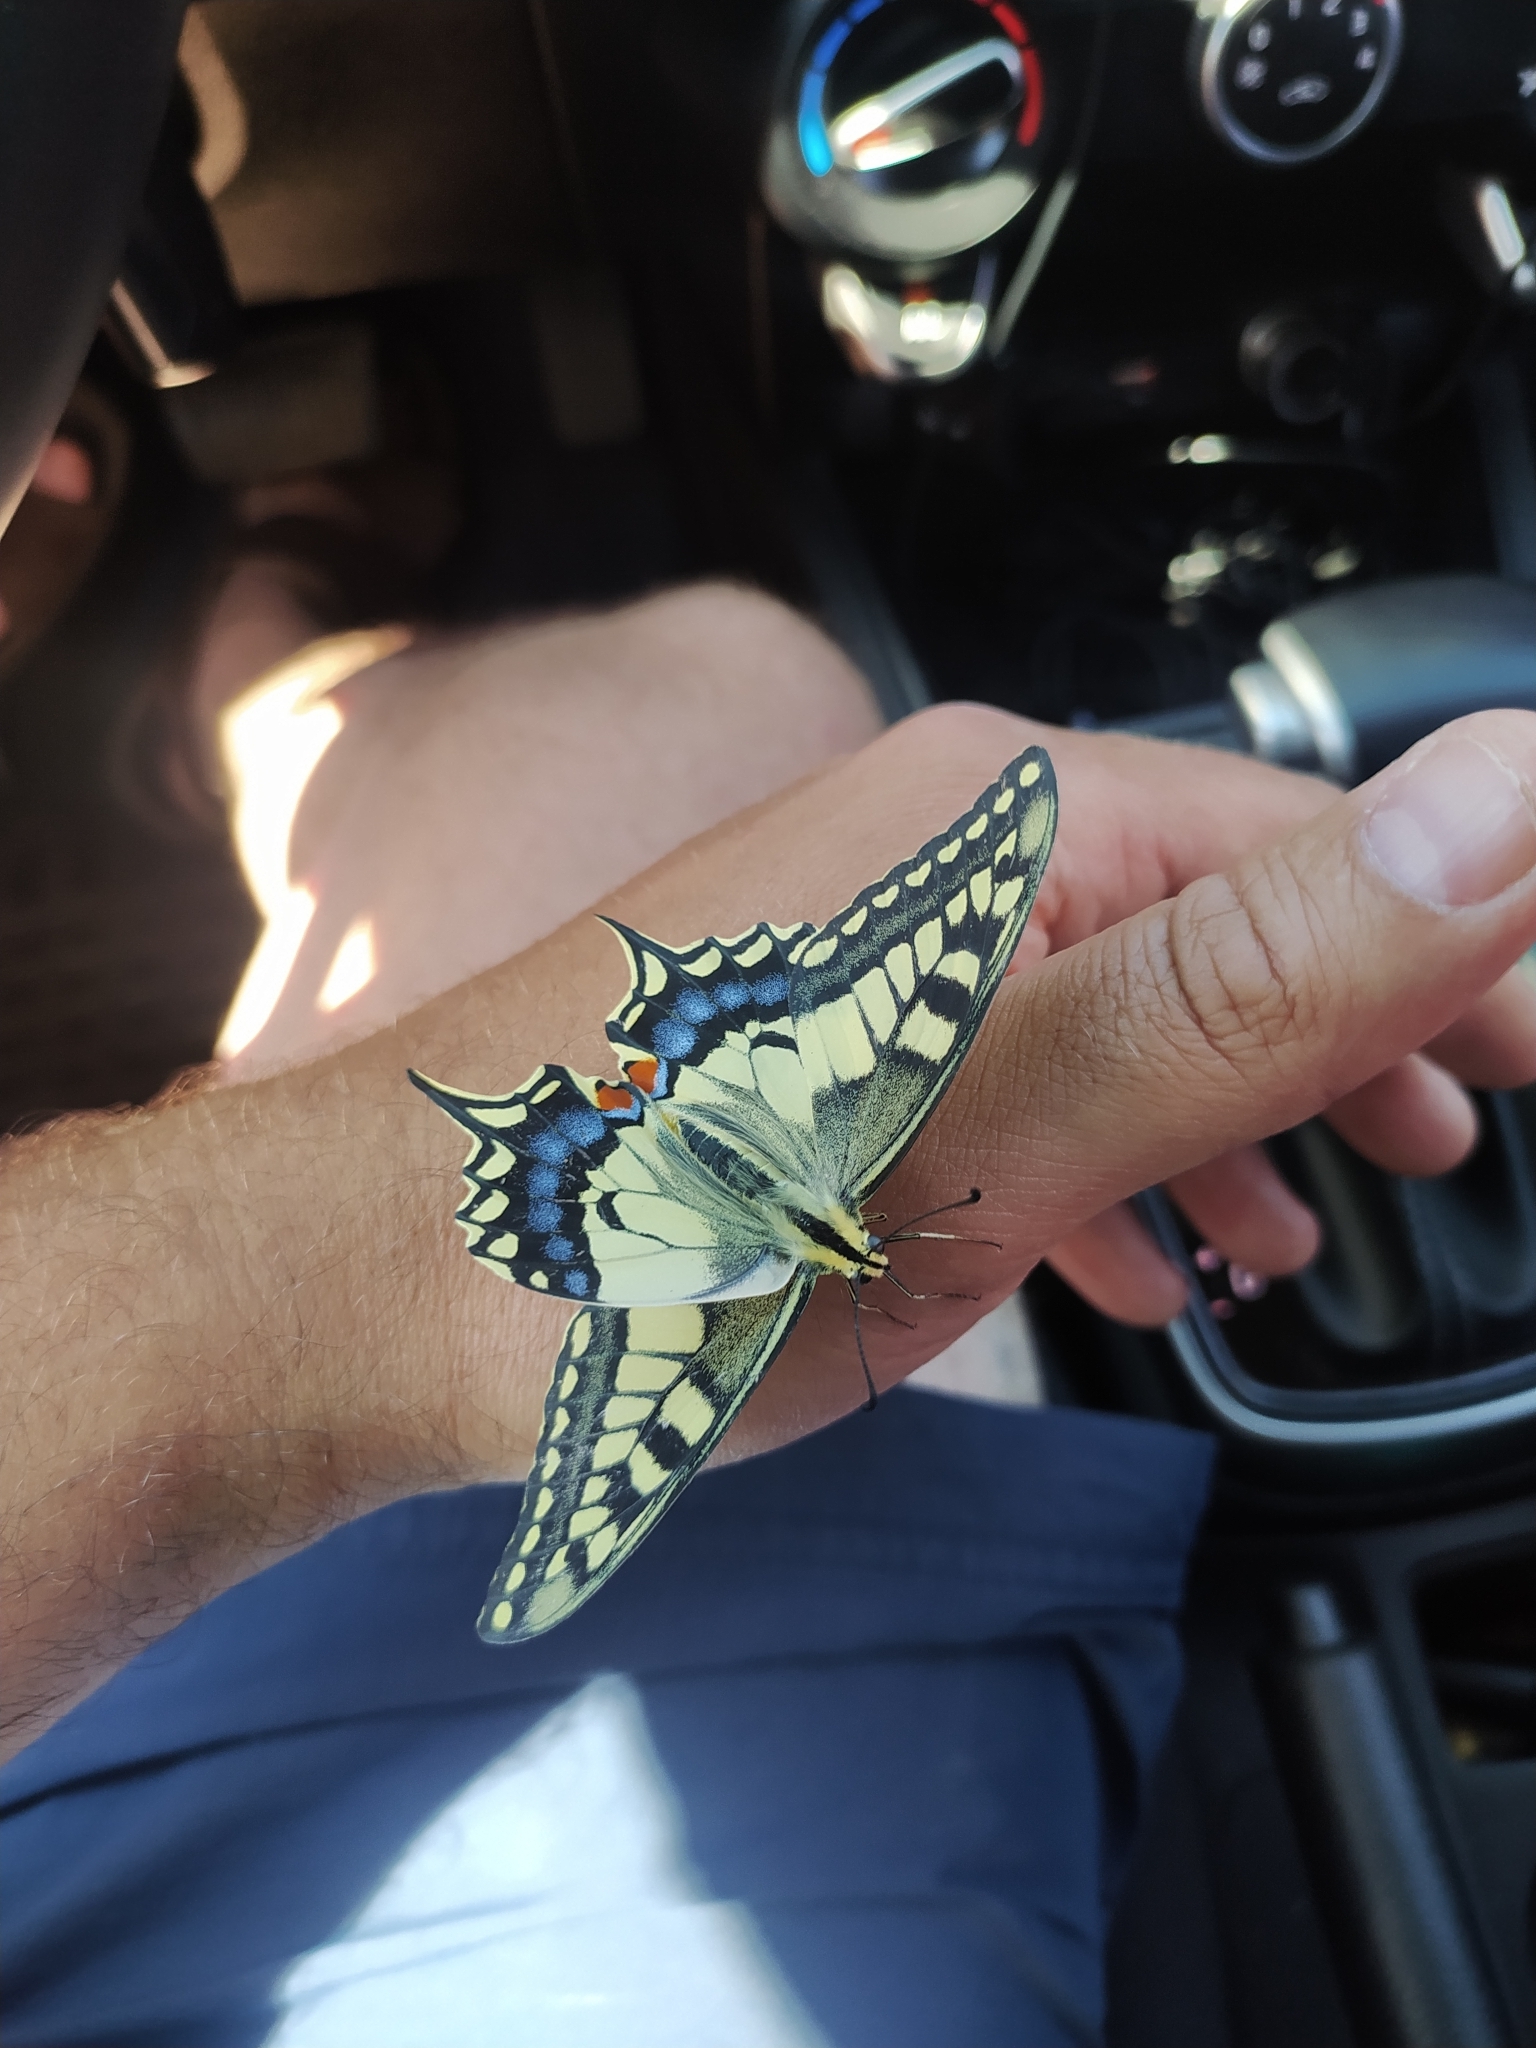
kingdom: Animalia
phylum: Arthropoda
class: Insecta
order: Lepidoptera
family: Papilionidae
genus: Papilio
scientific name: Papilio machaon
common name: Swallowtail
